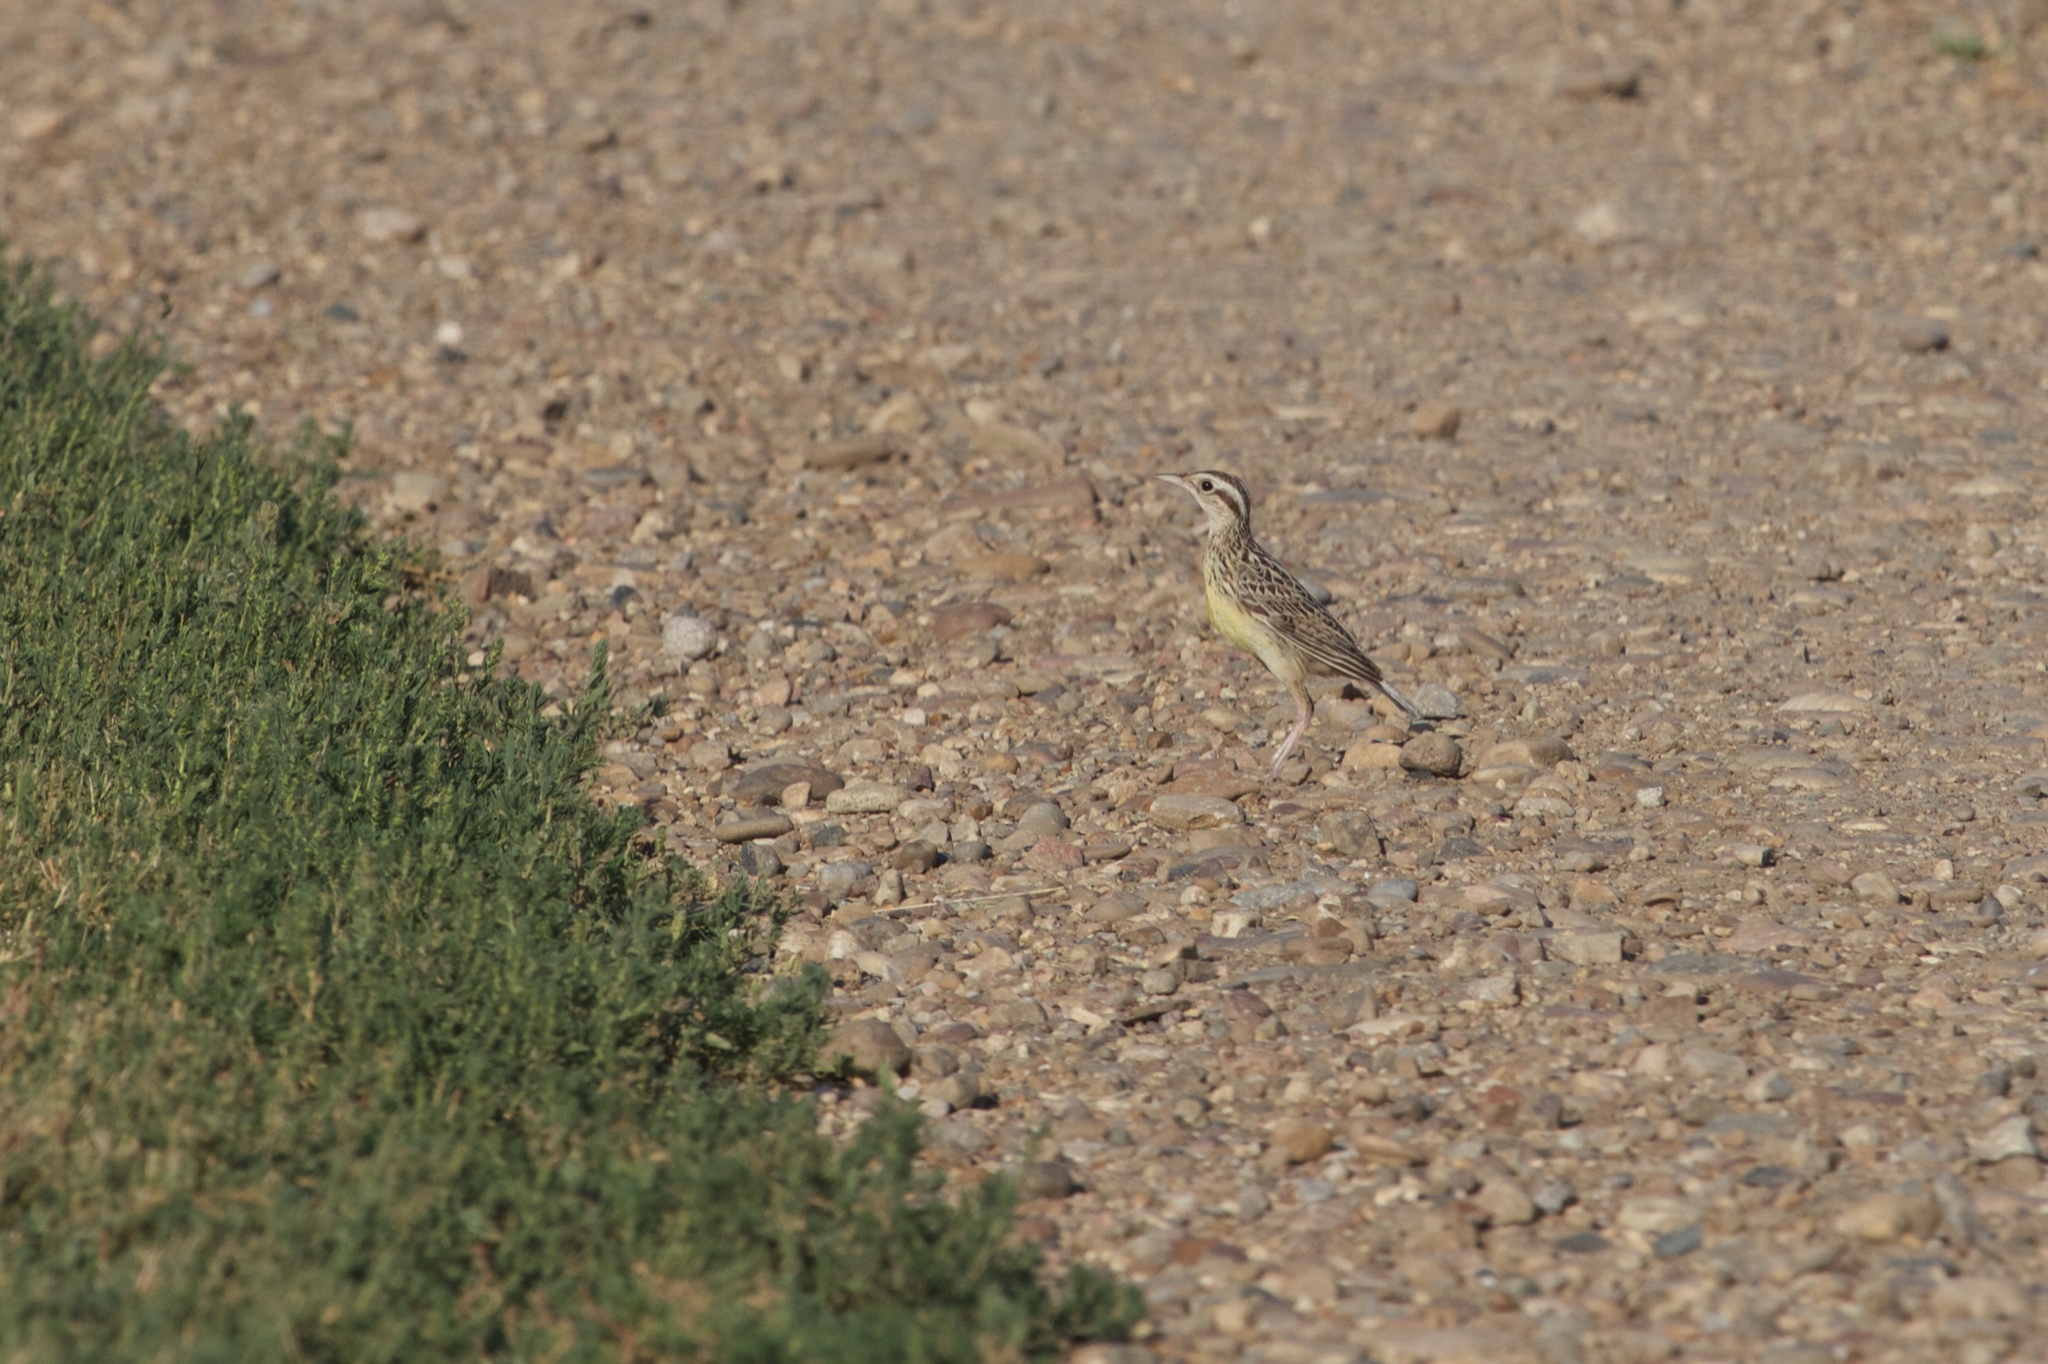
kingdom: Animalia
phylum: Chordata
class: Aves
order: Passeriformes
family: Icteridae
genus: Sturnella
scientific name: Sturnella neglecta
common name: Western meadowlark
